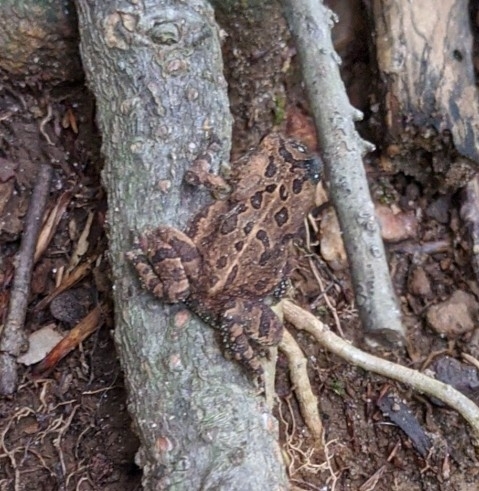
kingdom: Animalia
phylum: Chordata
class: Amphibia
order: Anura
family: Bufonidae
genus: Anaxyrus
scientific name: Anaxyrus fowleri
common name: Fowler's toad
